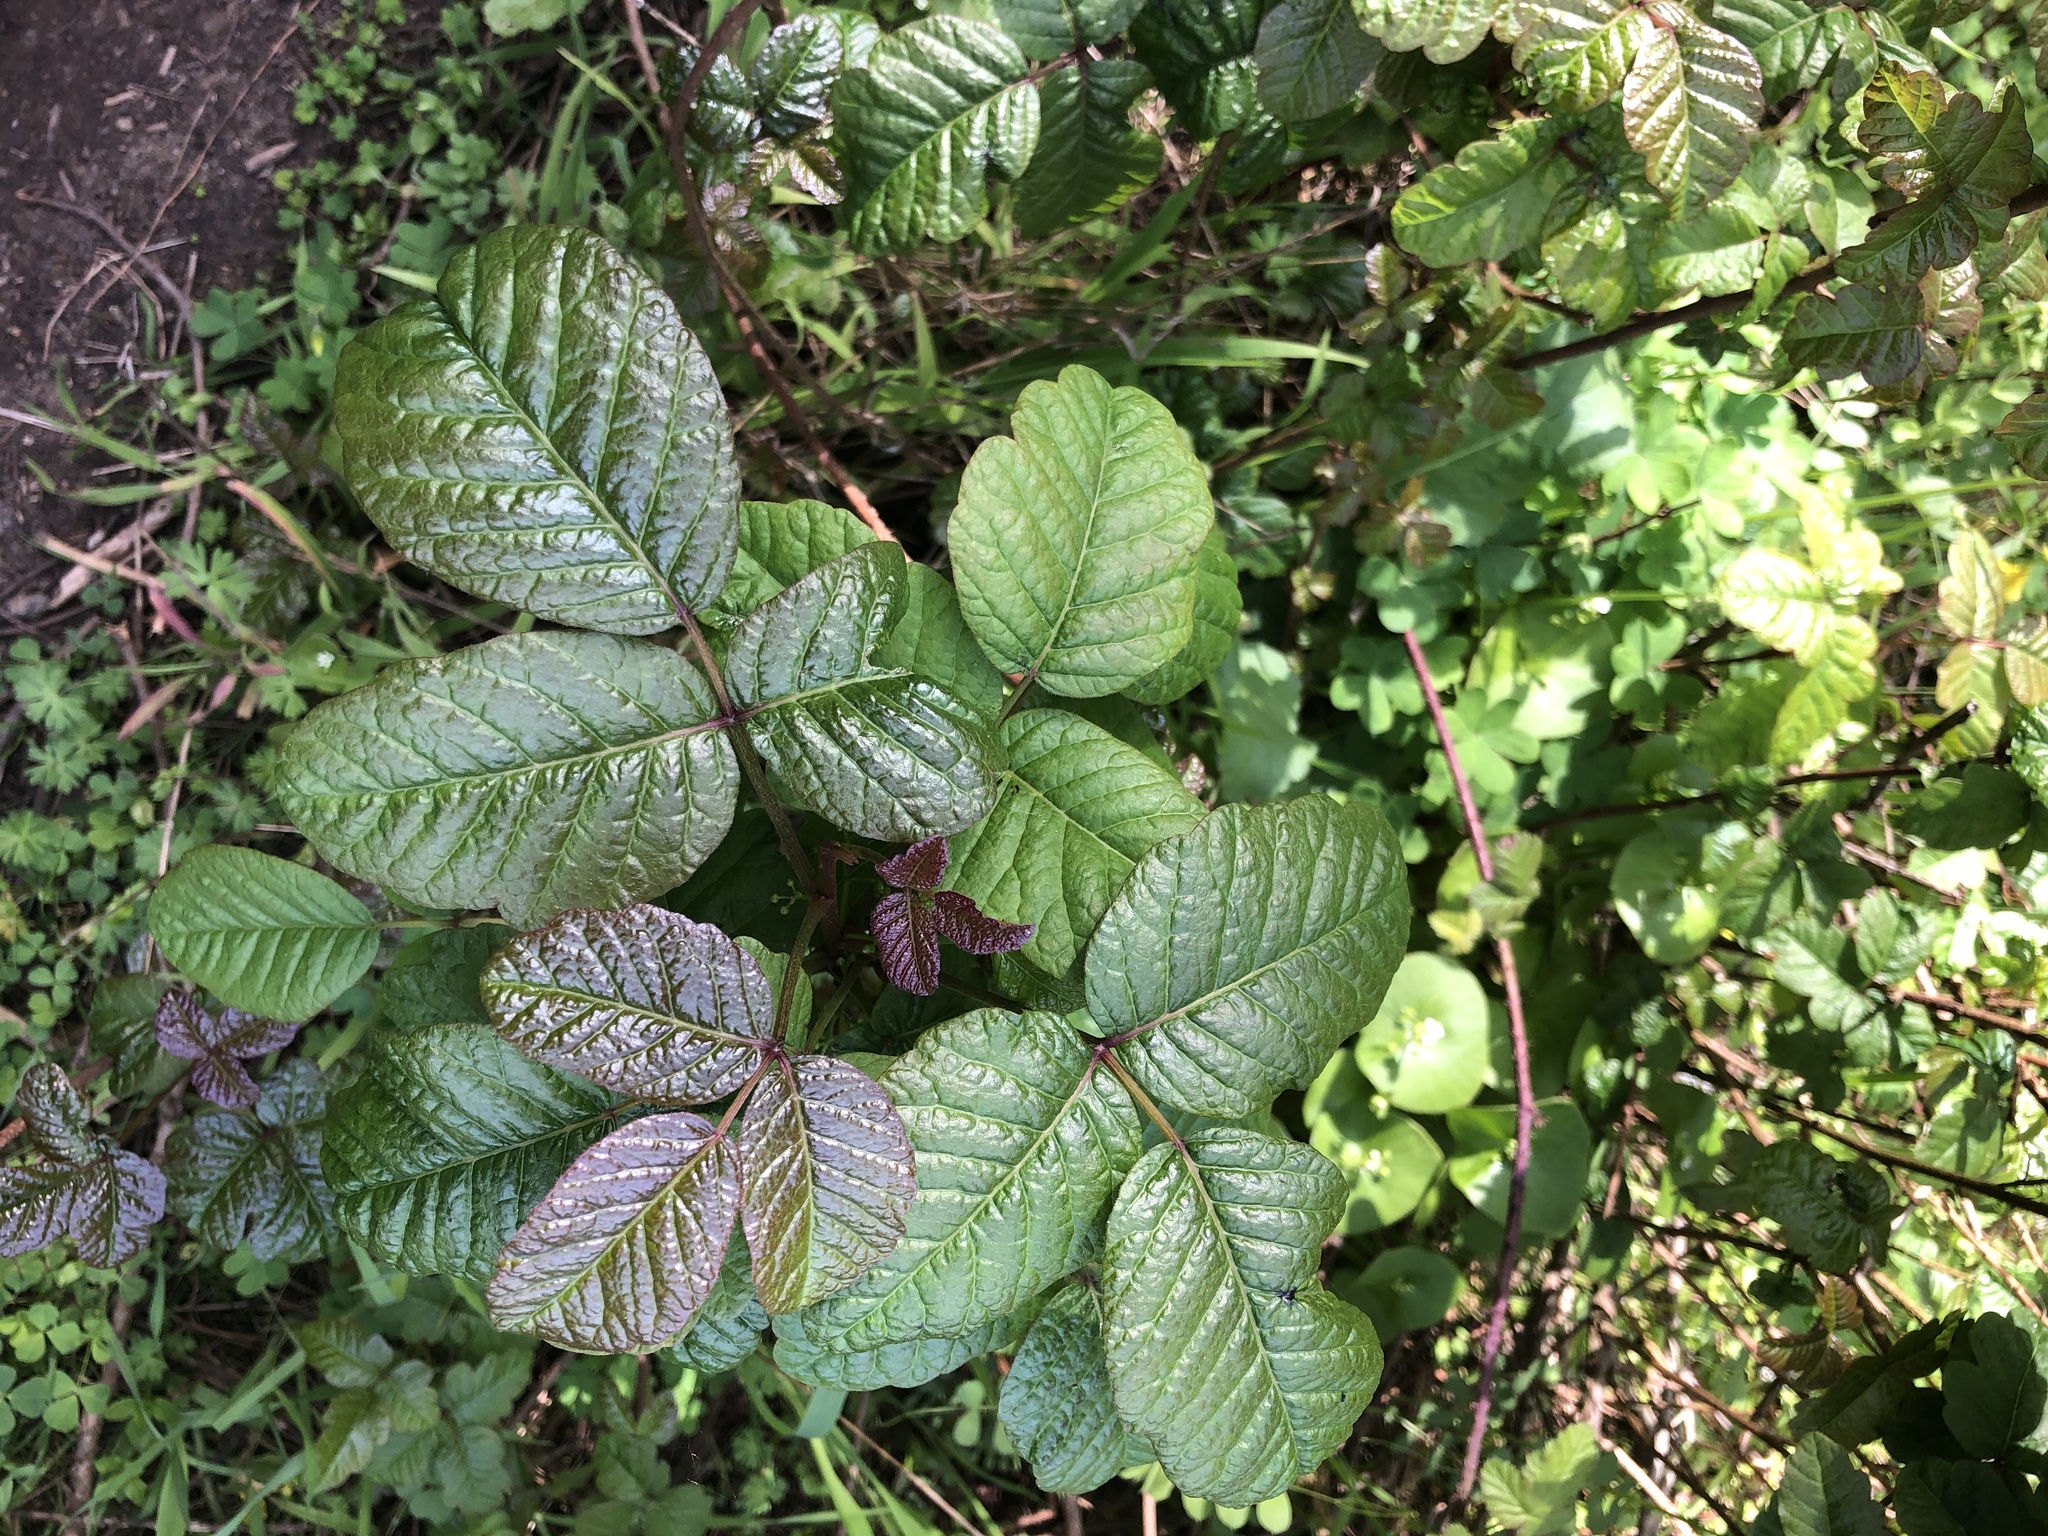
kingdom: Plantae
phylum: Tracheophyta
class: Magnoliopsida
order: Sapindales
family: Anacardiaceae
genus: Toxicodendron
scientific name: Toxicodendron diversilobum
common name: Pacific poison-oak
